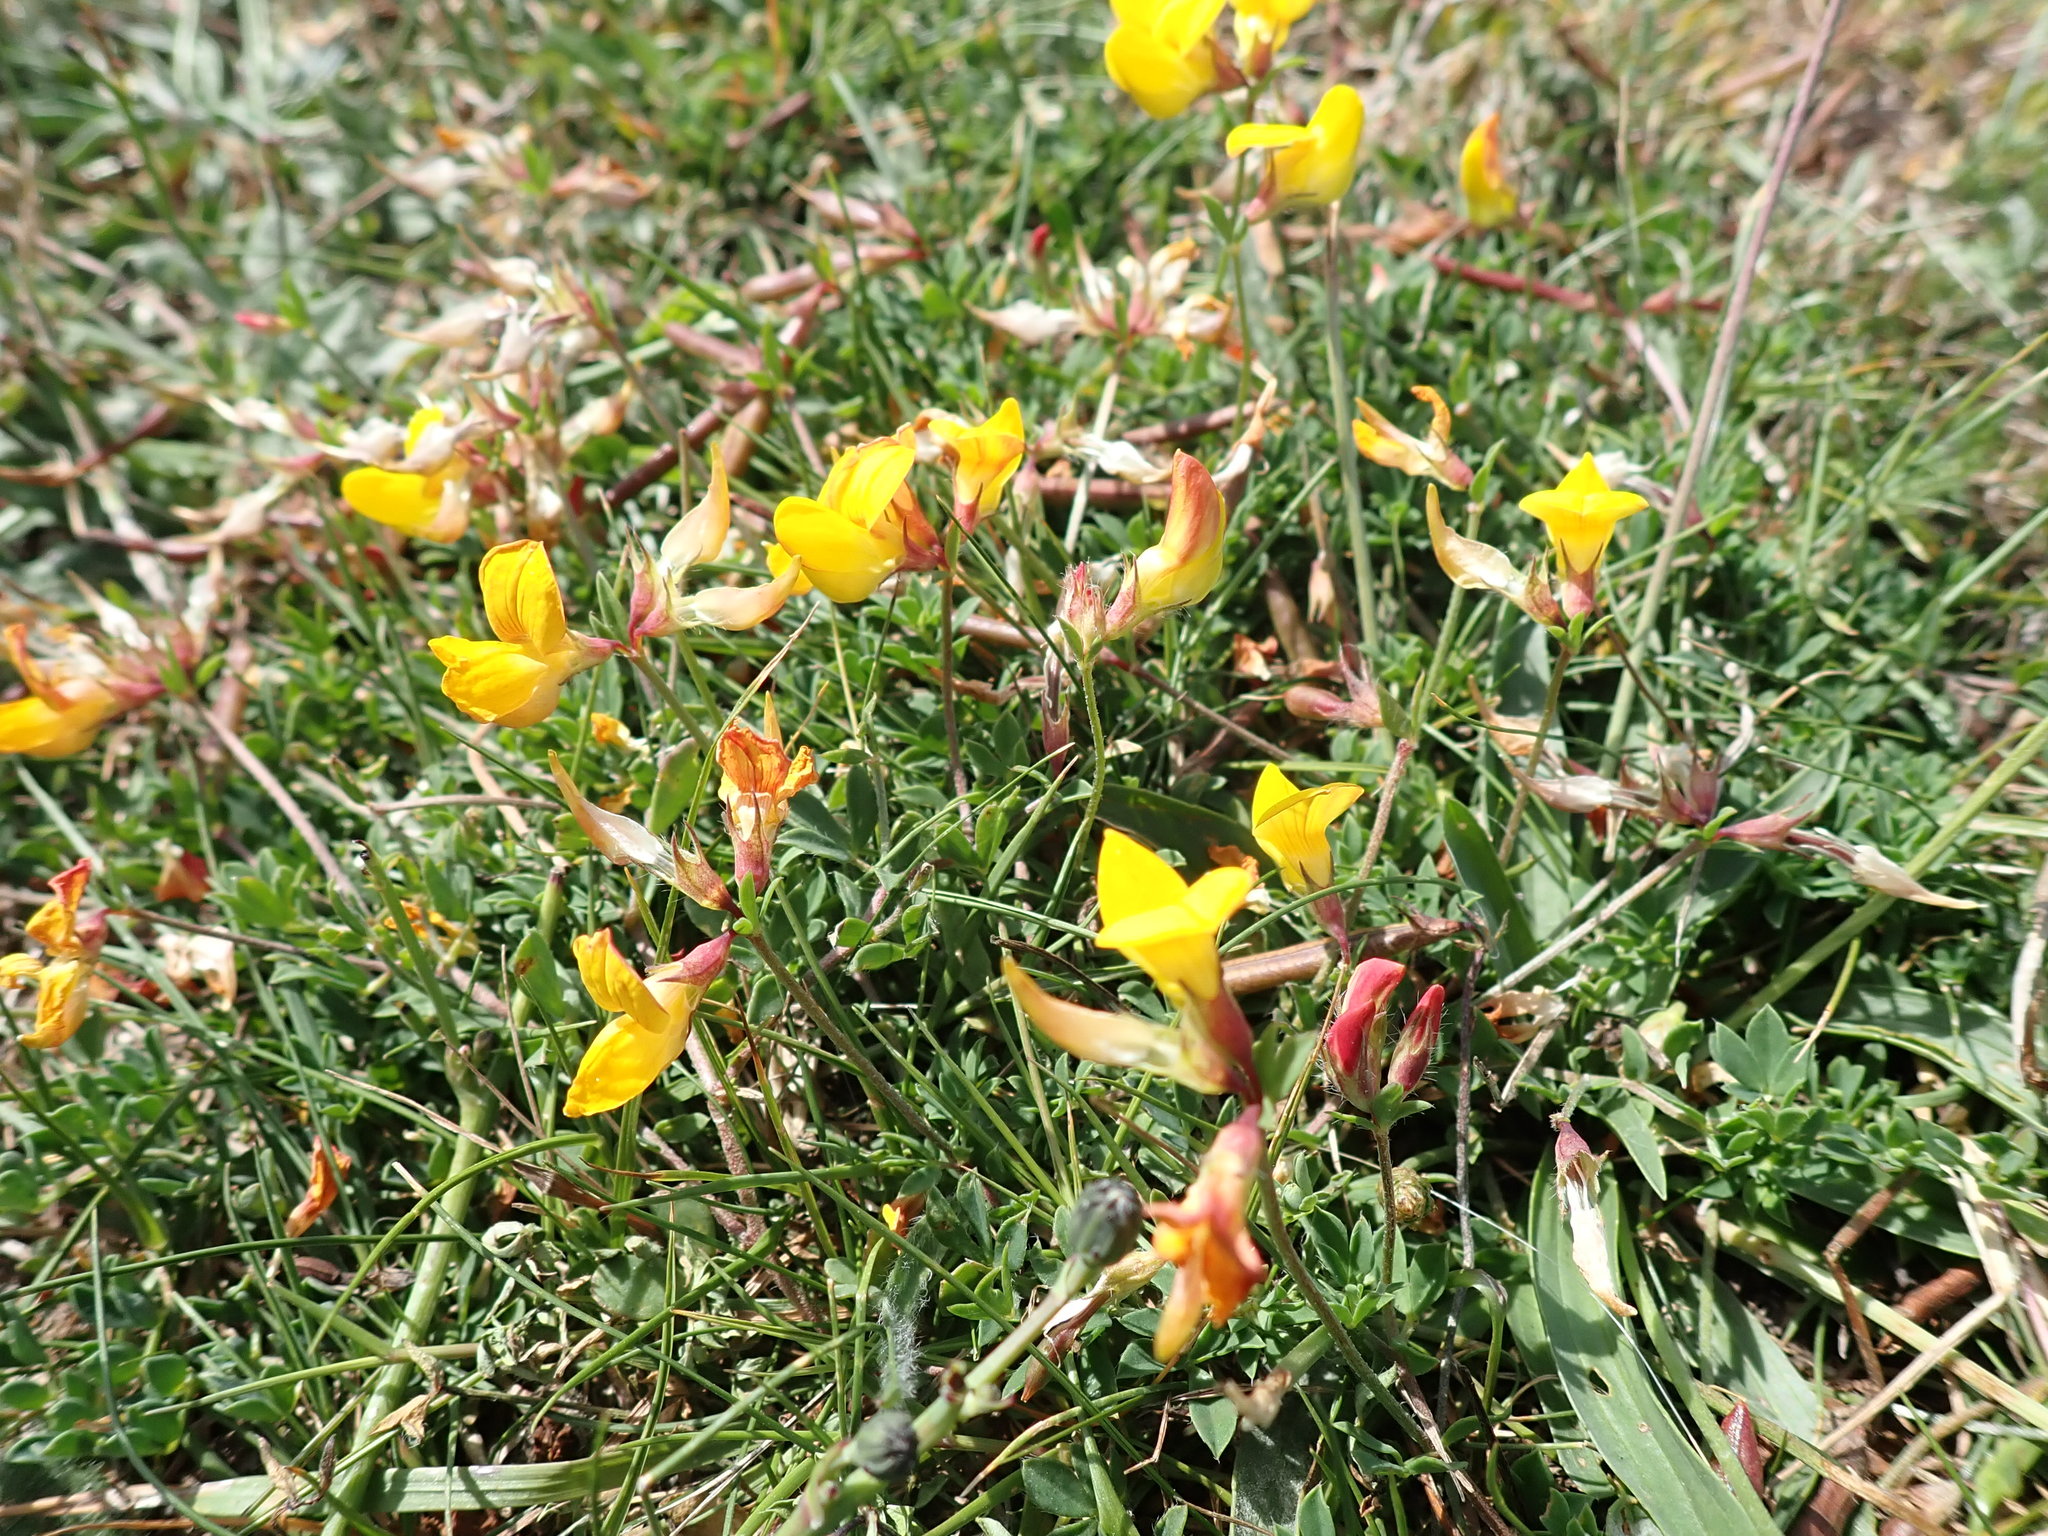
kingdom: Plantae
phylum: Tracheophyta
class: Magnoliopsida
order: Fabales
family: Fabaceae
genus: Lotus
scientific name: Lotus corniculatus
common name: Common bird's-foot-trefoil
